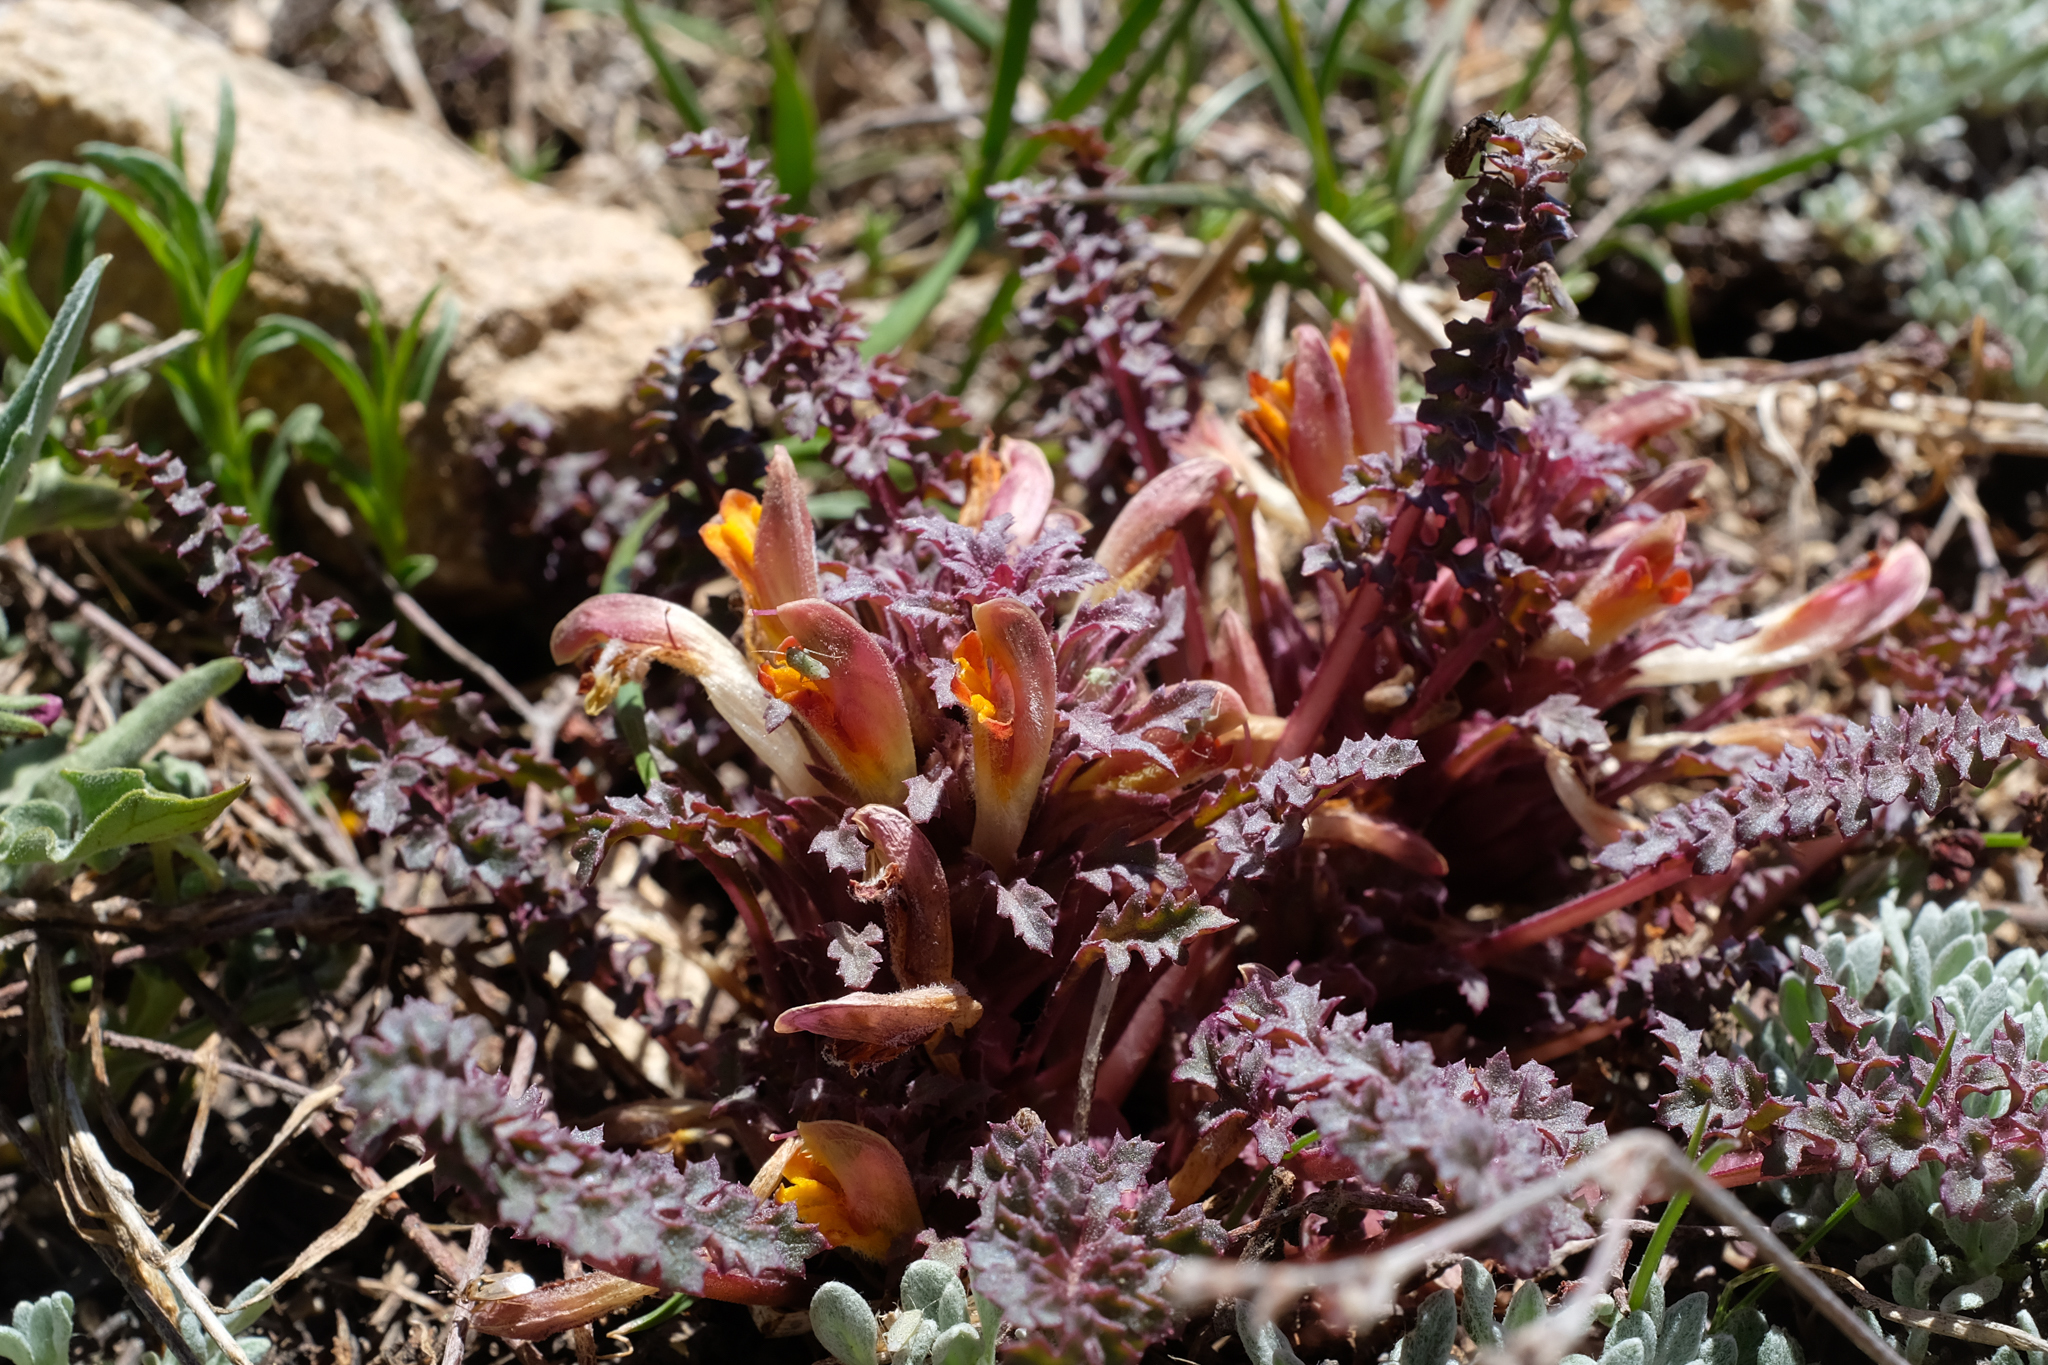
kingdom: Plantae
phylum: Tracheophyta
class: Magnoliopsida
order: Lamiales
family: Orobanchaceae
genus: Pedicularis
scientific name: Pedicularis semibarbata
